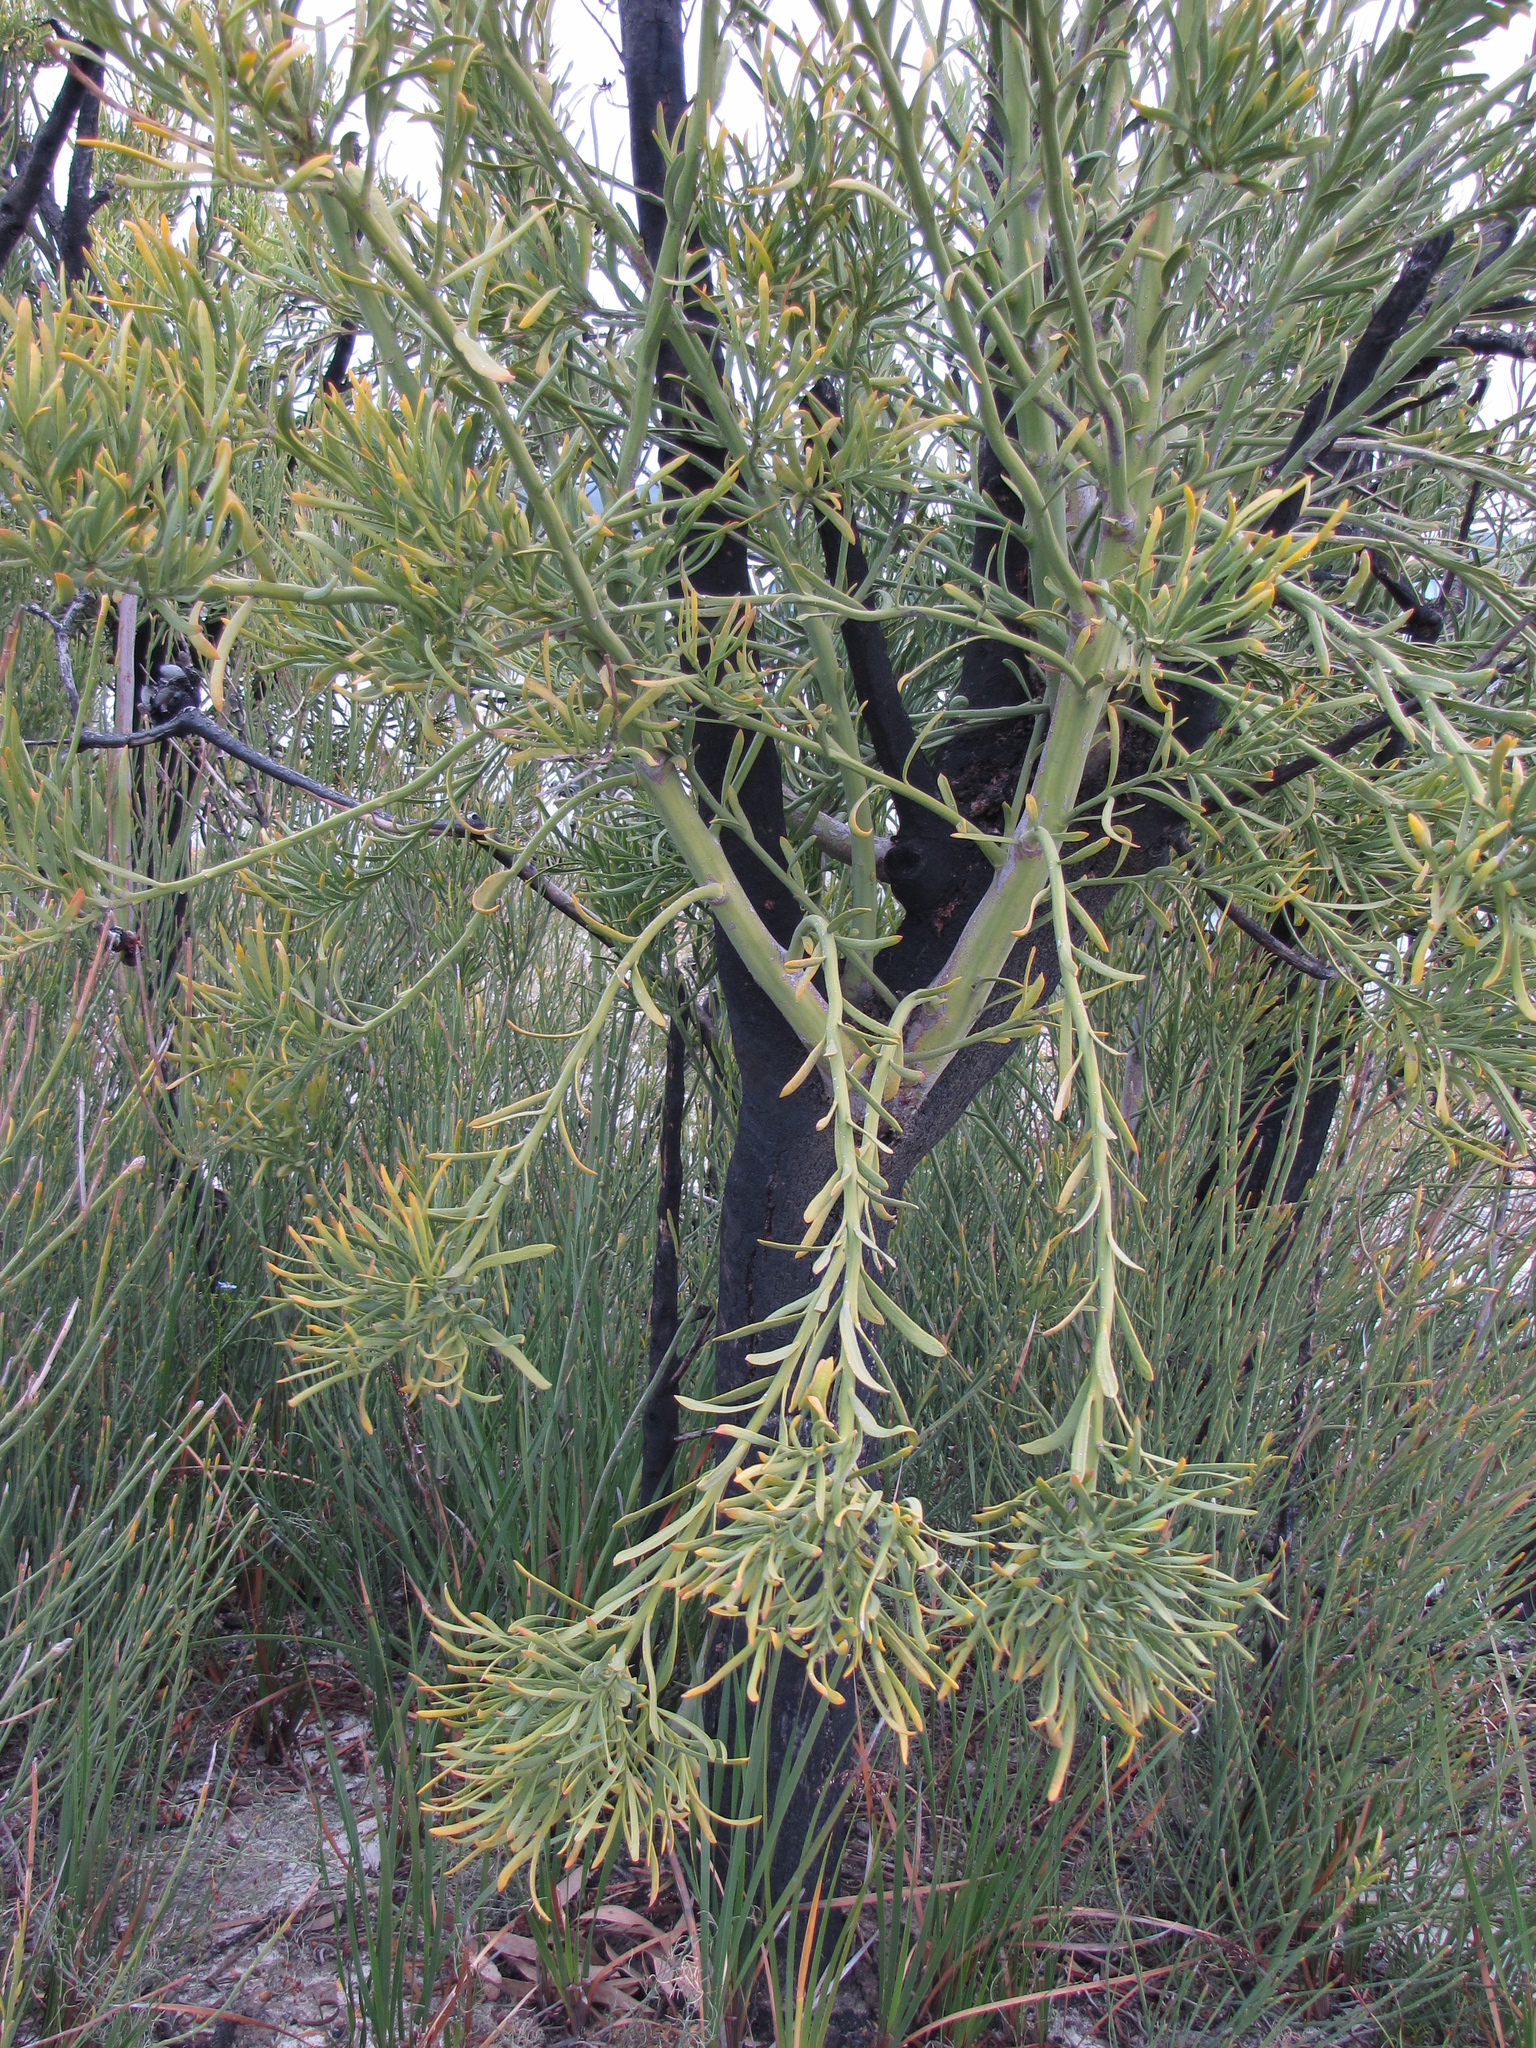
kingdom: Plantae
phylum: Tracheophyta
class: Magnoliopsida
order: Santalales
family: Loranthaceae
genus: Nuytsia
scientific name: Nuytsia floribunda
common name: Western australian christmastree
